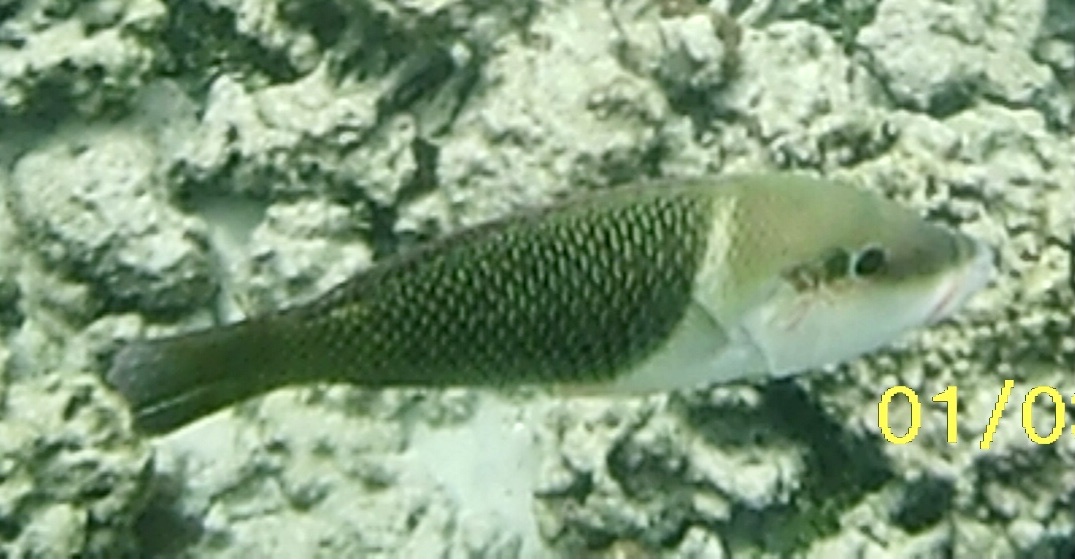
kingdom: Animalia
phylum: Chordata
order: Perciformes
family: Labridae
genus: Hemigymnus
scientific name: Hemigymnus melapterus
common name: Blackeye thicklip
